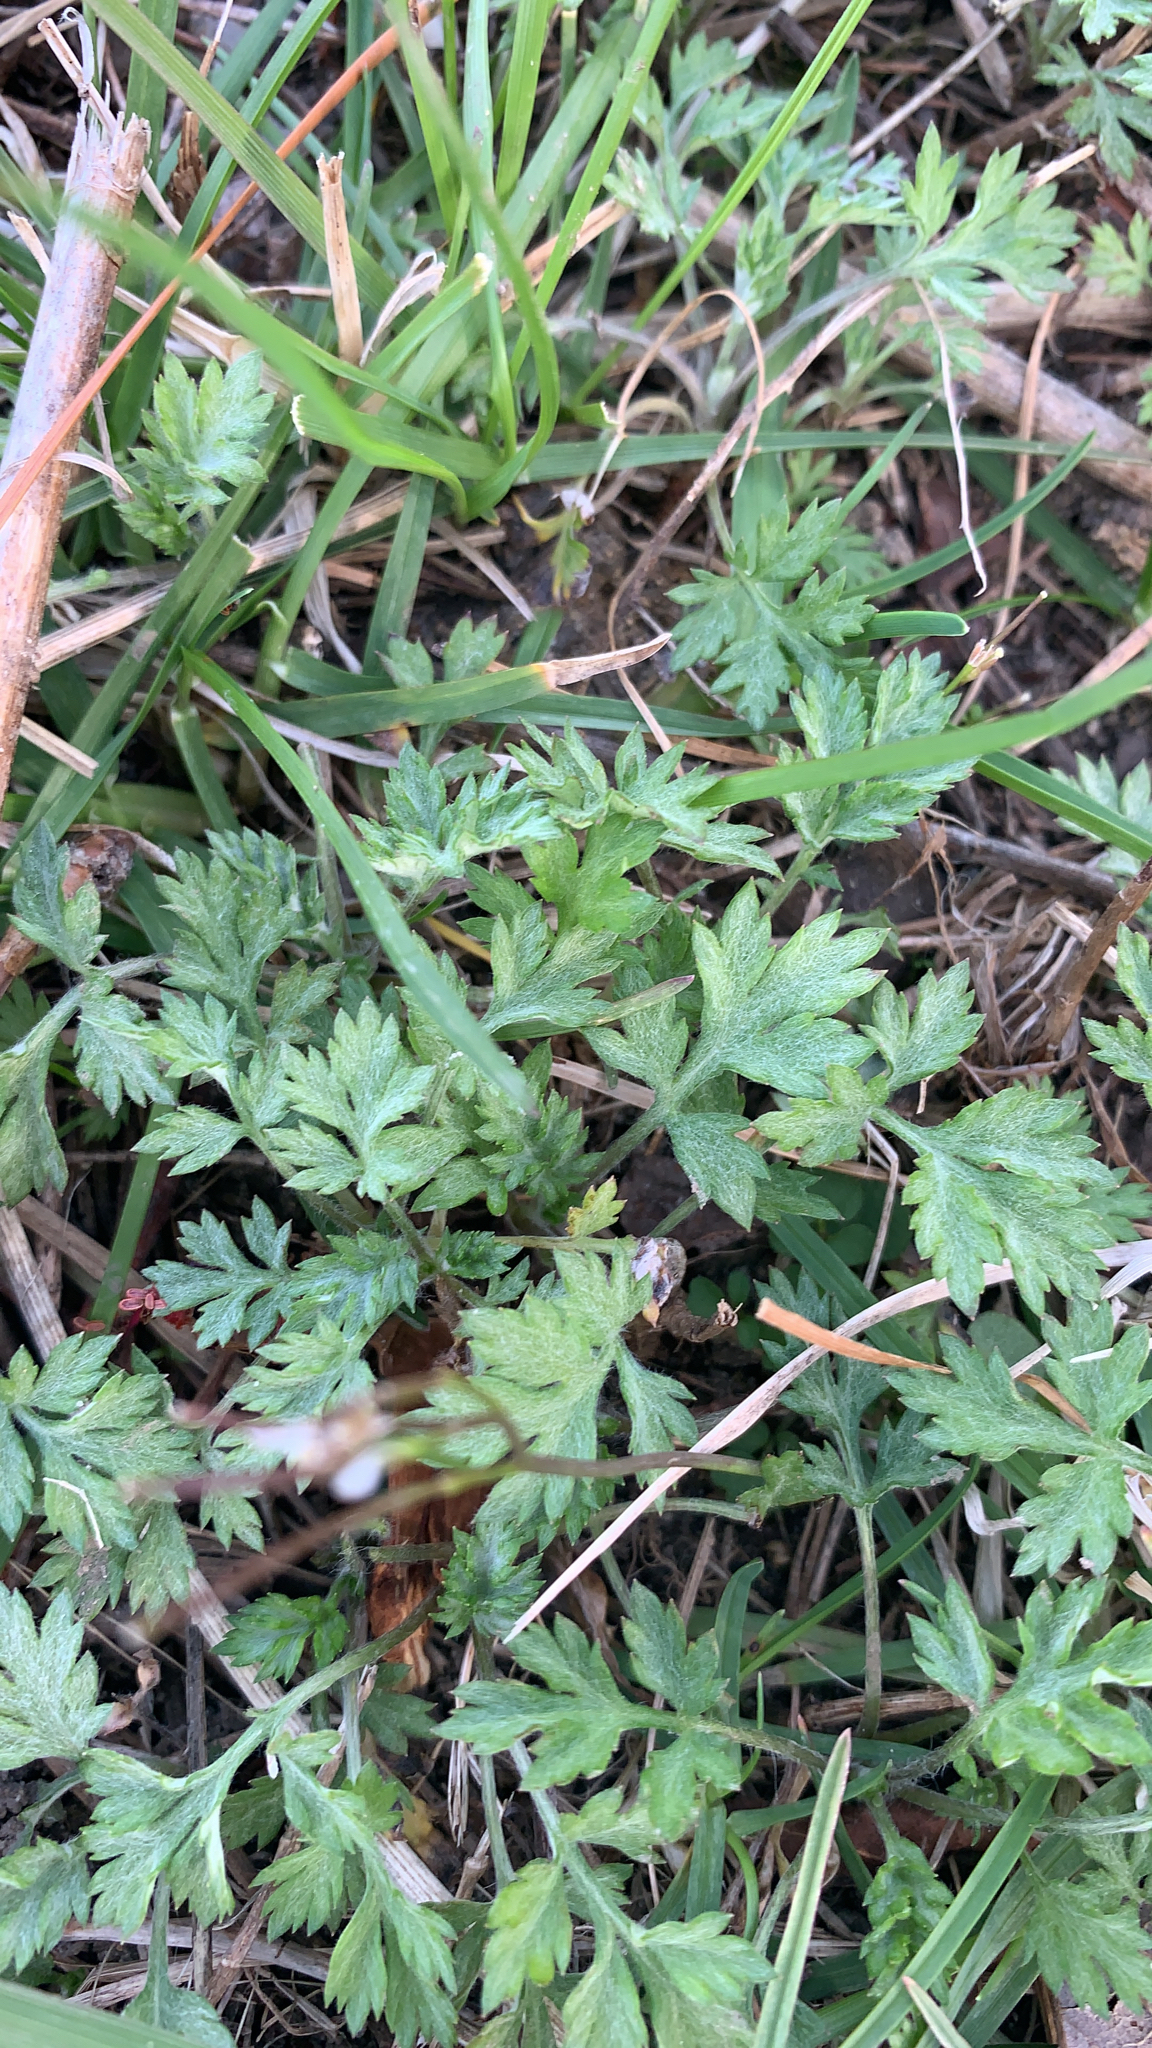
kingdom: Plantae
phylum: Tracheophyta
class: Magnoliopsida
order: Asterales
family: Asteraceae
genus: Artemisia
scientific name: Artemisia vulgaris
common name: Mugwort
